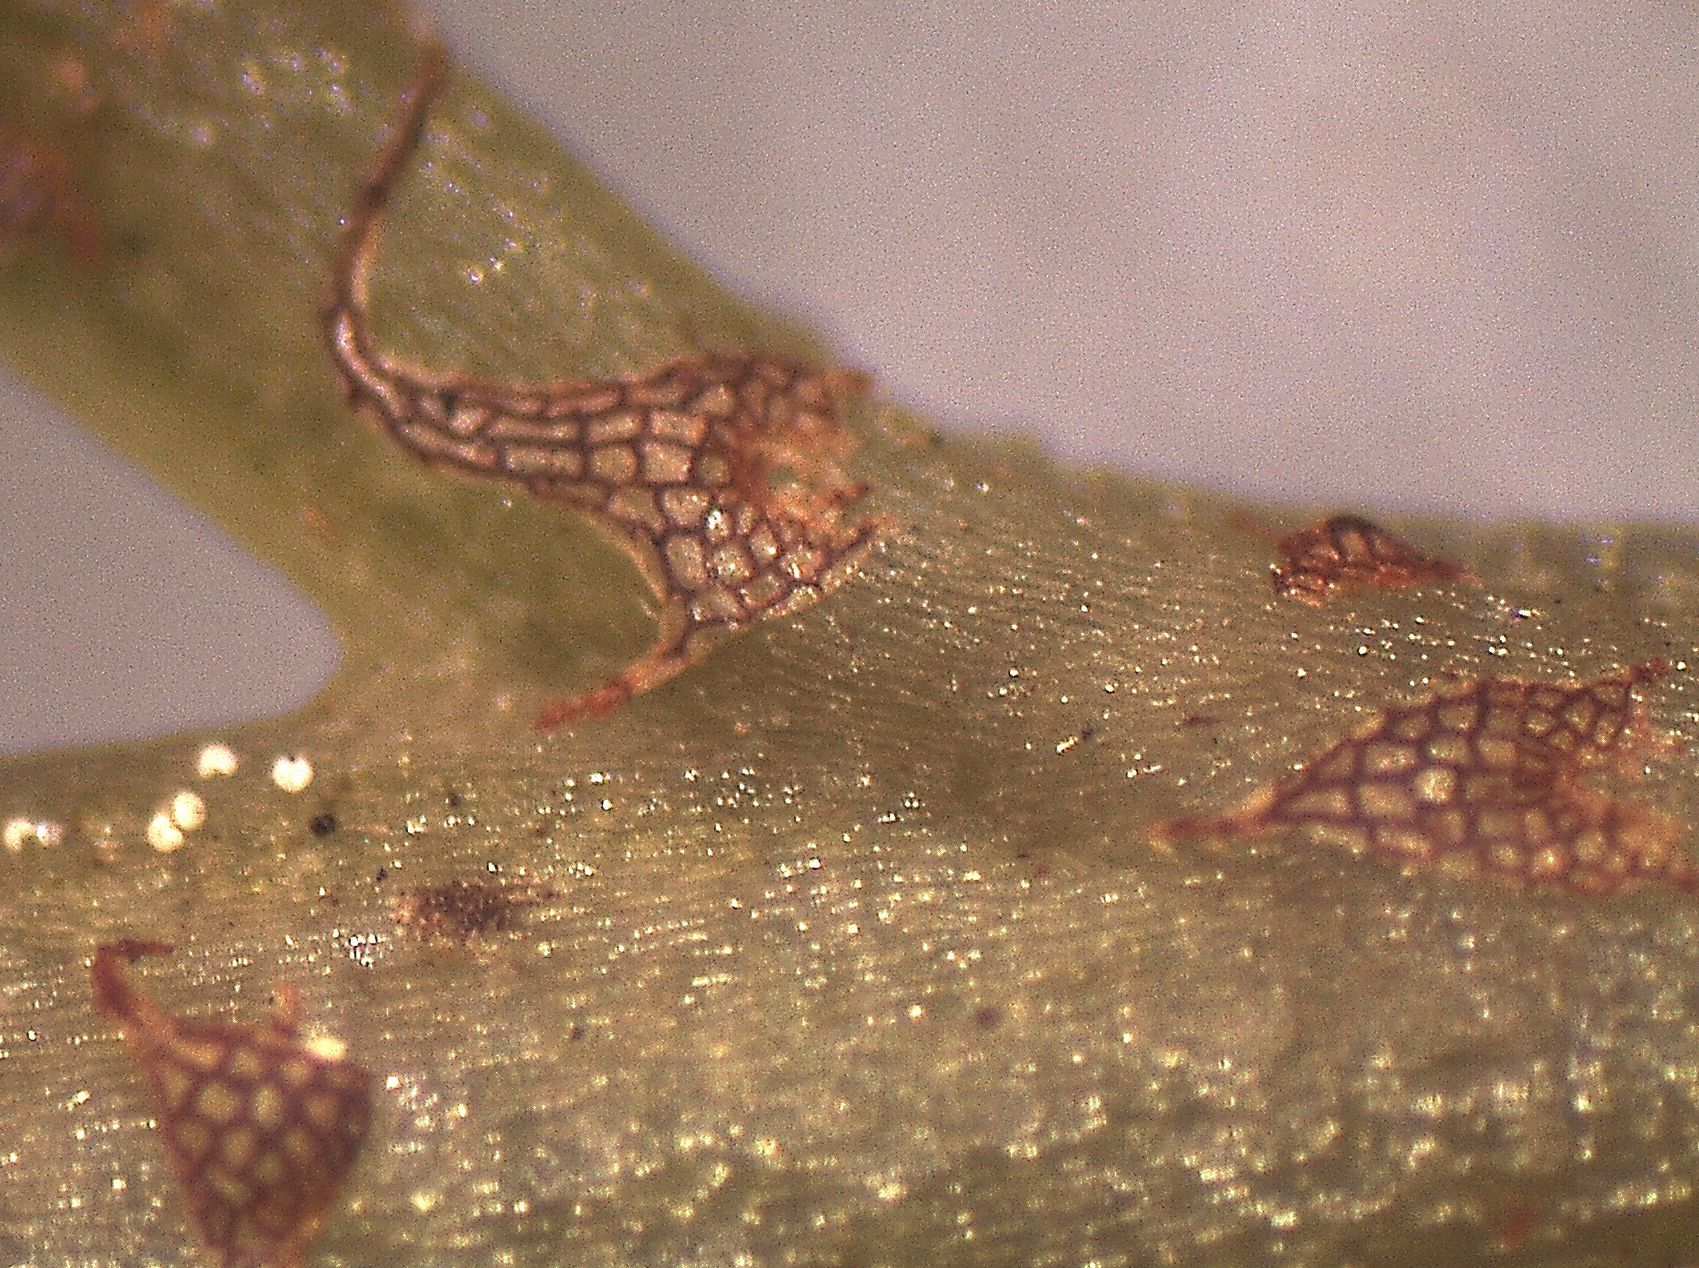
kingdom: Plantae
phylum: Tracheophyta
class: Polypodiopsida
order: Polypodiales
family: Aspleniaceae
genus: Asplenium
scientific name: Asplenium
